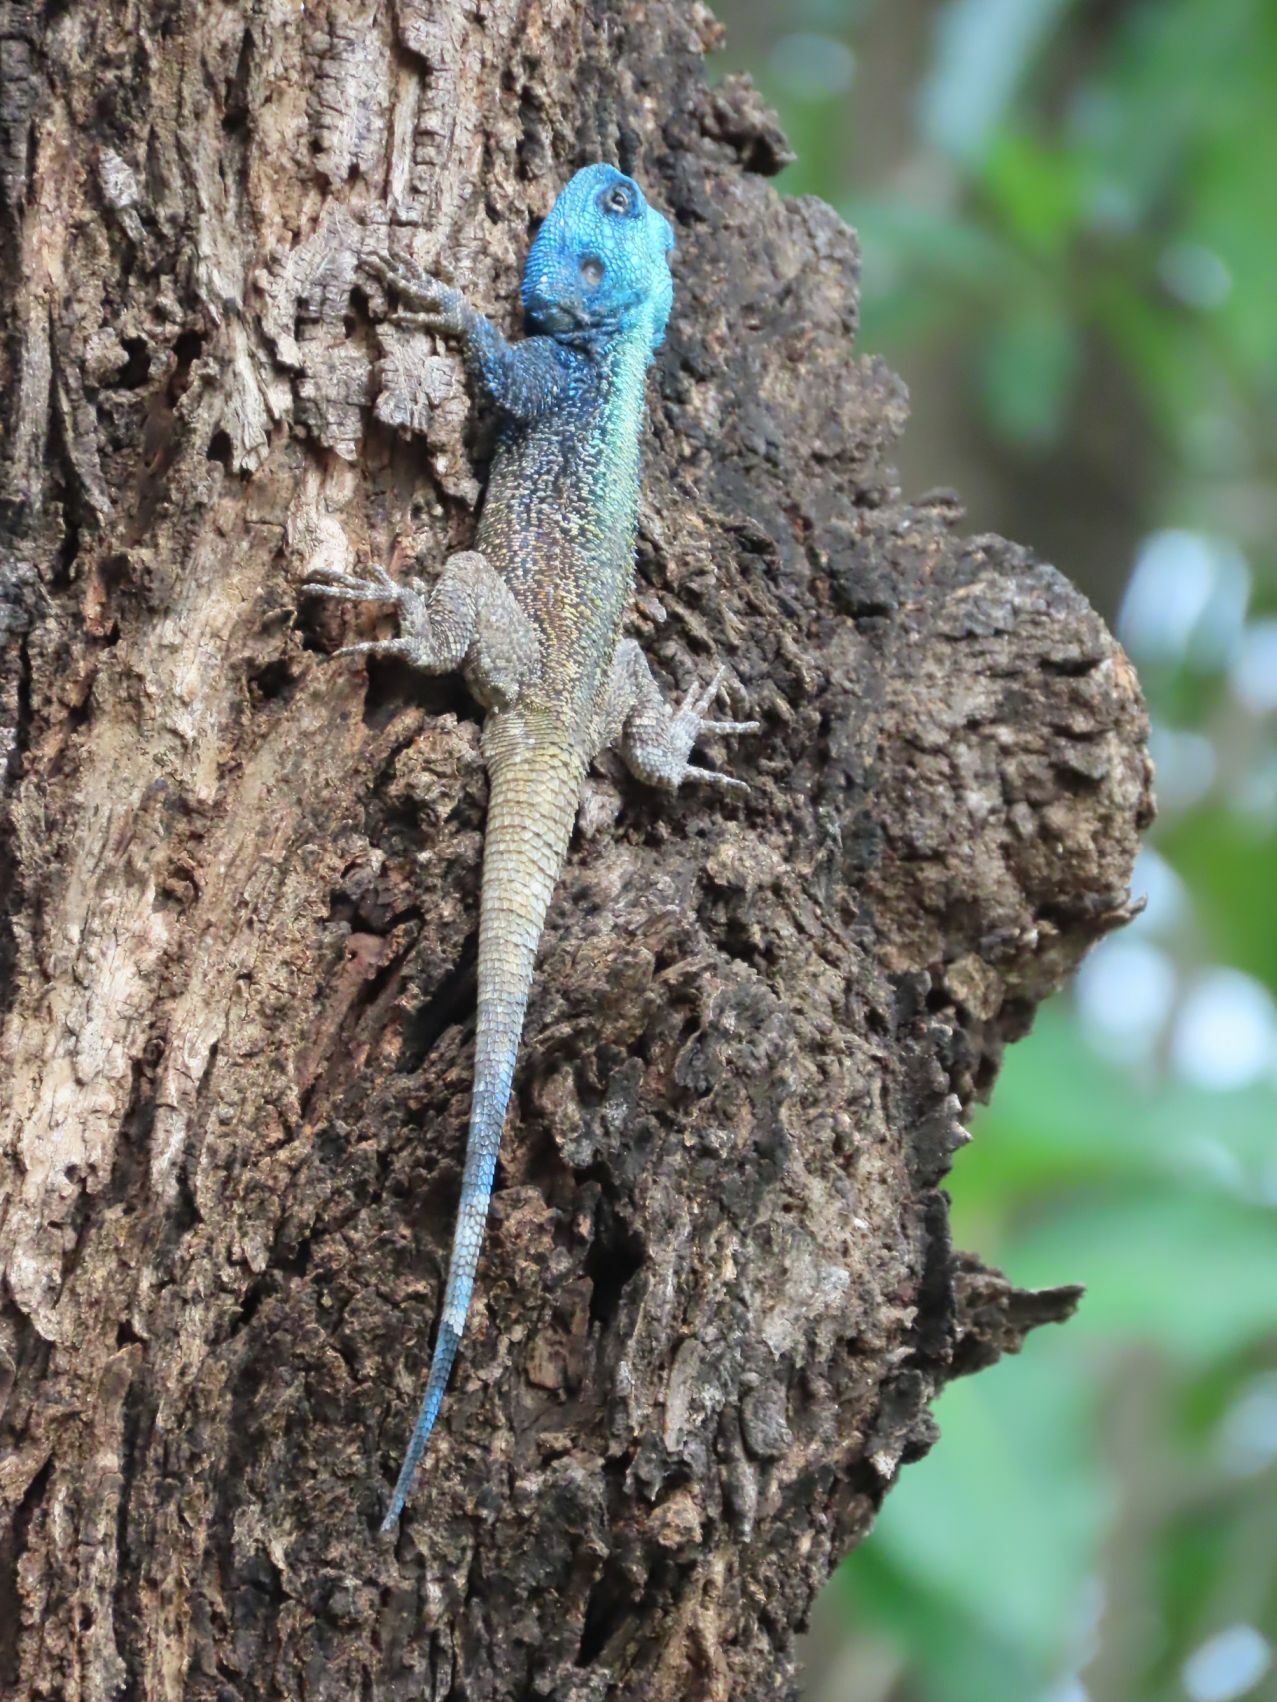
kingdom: Animalia
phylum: Chordata
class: Squamata
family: Agamidae
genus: Acanthocercus
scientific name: Acanthocercus atricollis
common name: Southern tree agama
